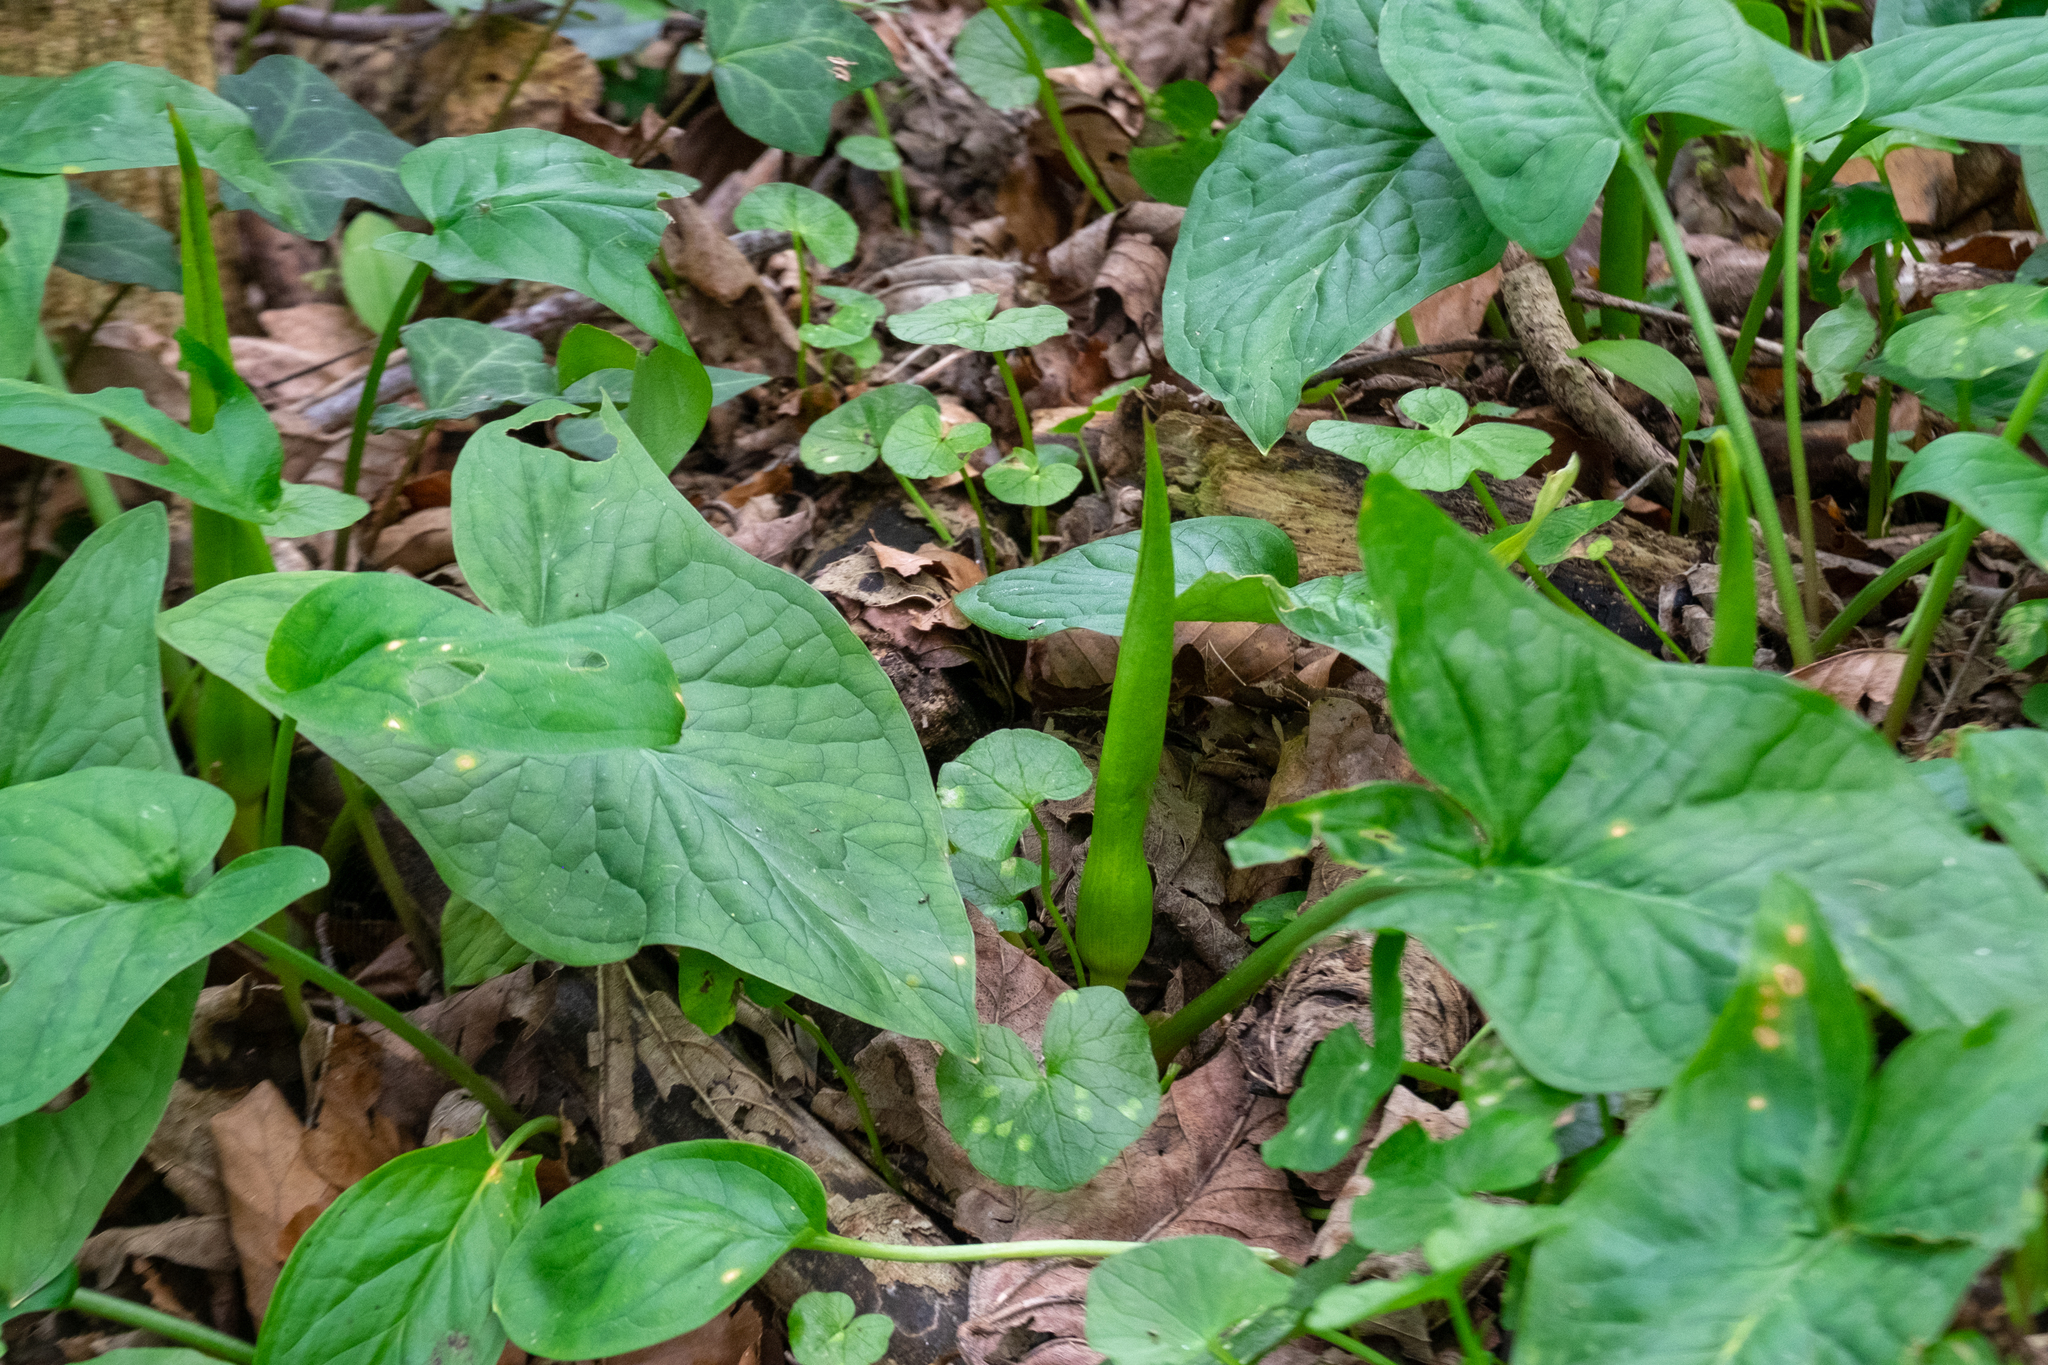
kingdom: Plantae
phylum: Tracheophyta
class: Liliopsida
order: Alismatales
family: Araceae
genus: Arum
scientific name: Arum maculatum
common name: Lords-and-ladies
